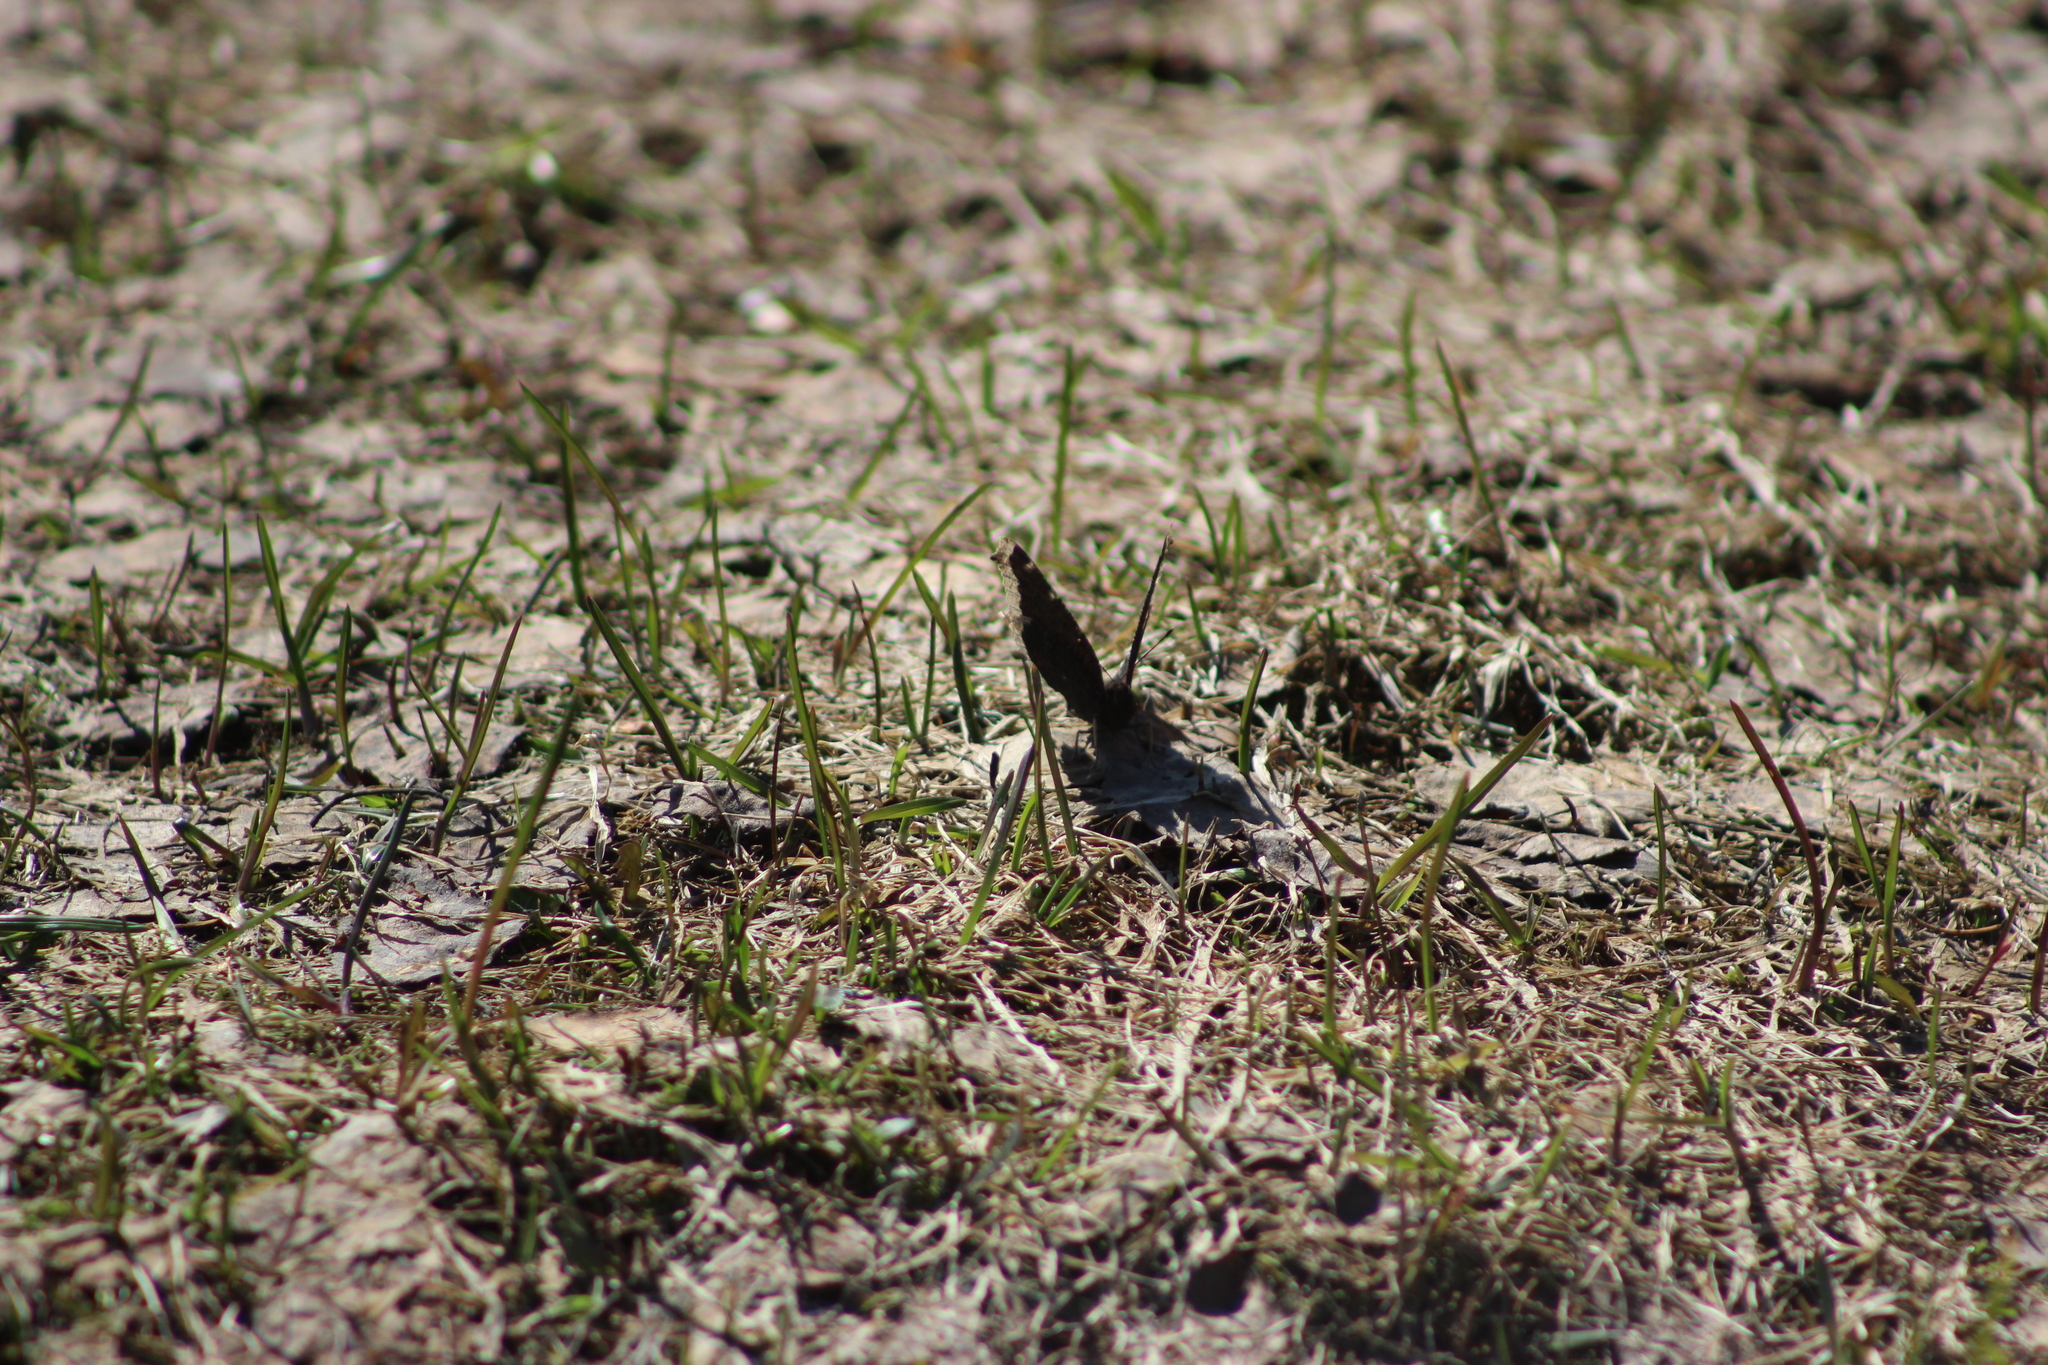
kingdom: Animalia
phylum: Arthropoda
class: Insecta
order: Lepidoptera
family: Nymphalidae
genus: Nymphalis
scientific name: Nymphalis antiopa
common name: Camberwell beauty
